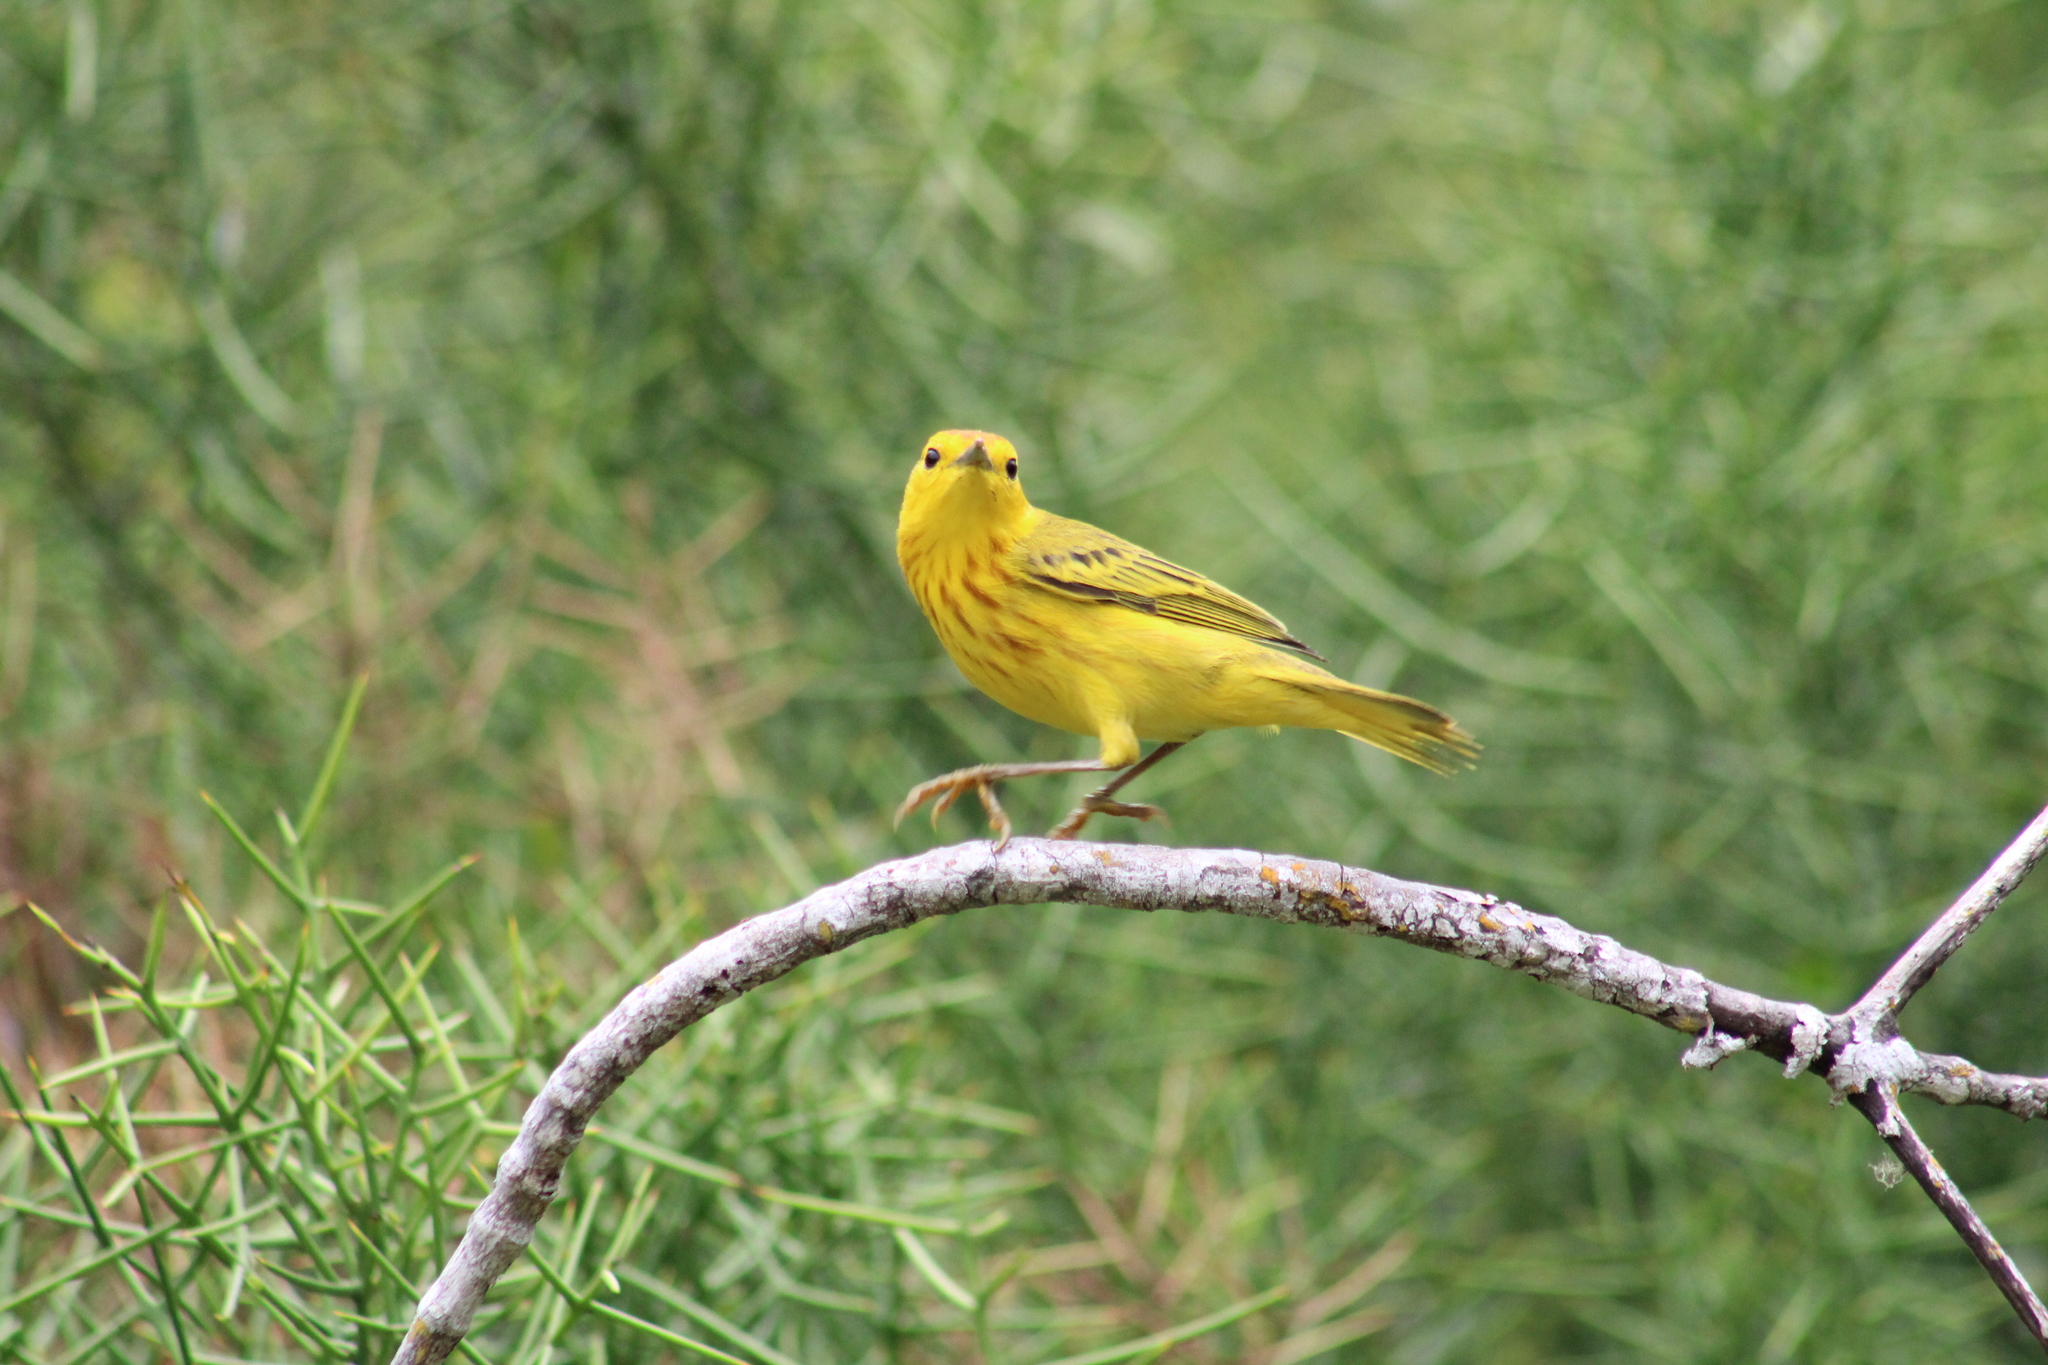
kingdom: Animalia
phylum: Chordata
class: Aves
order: Passeriformes
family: Parulidae
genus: Setophaga
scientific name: Setophaga petechia
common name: Yellow warbler
